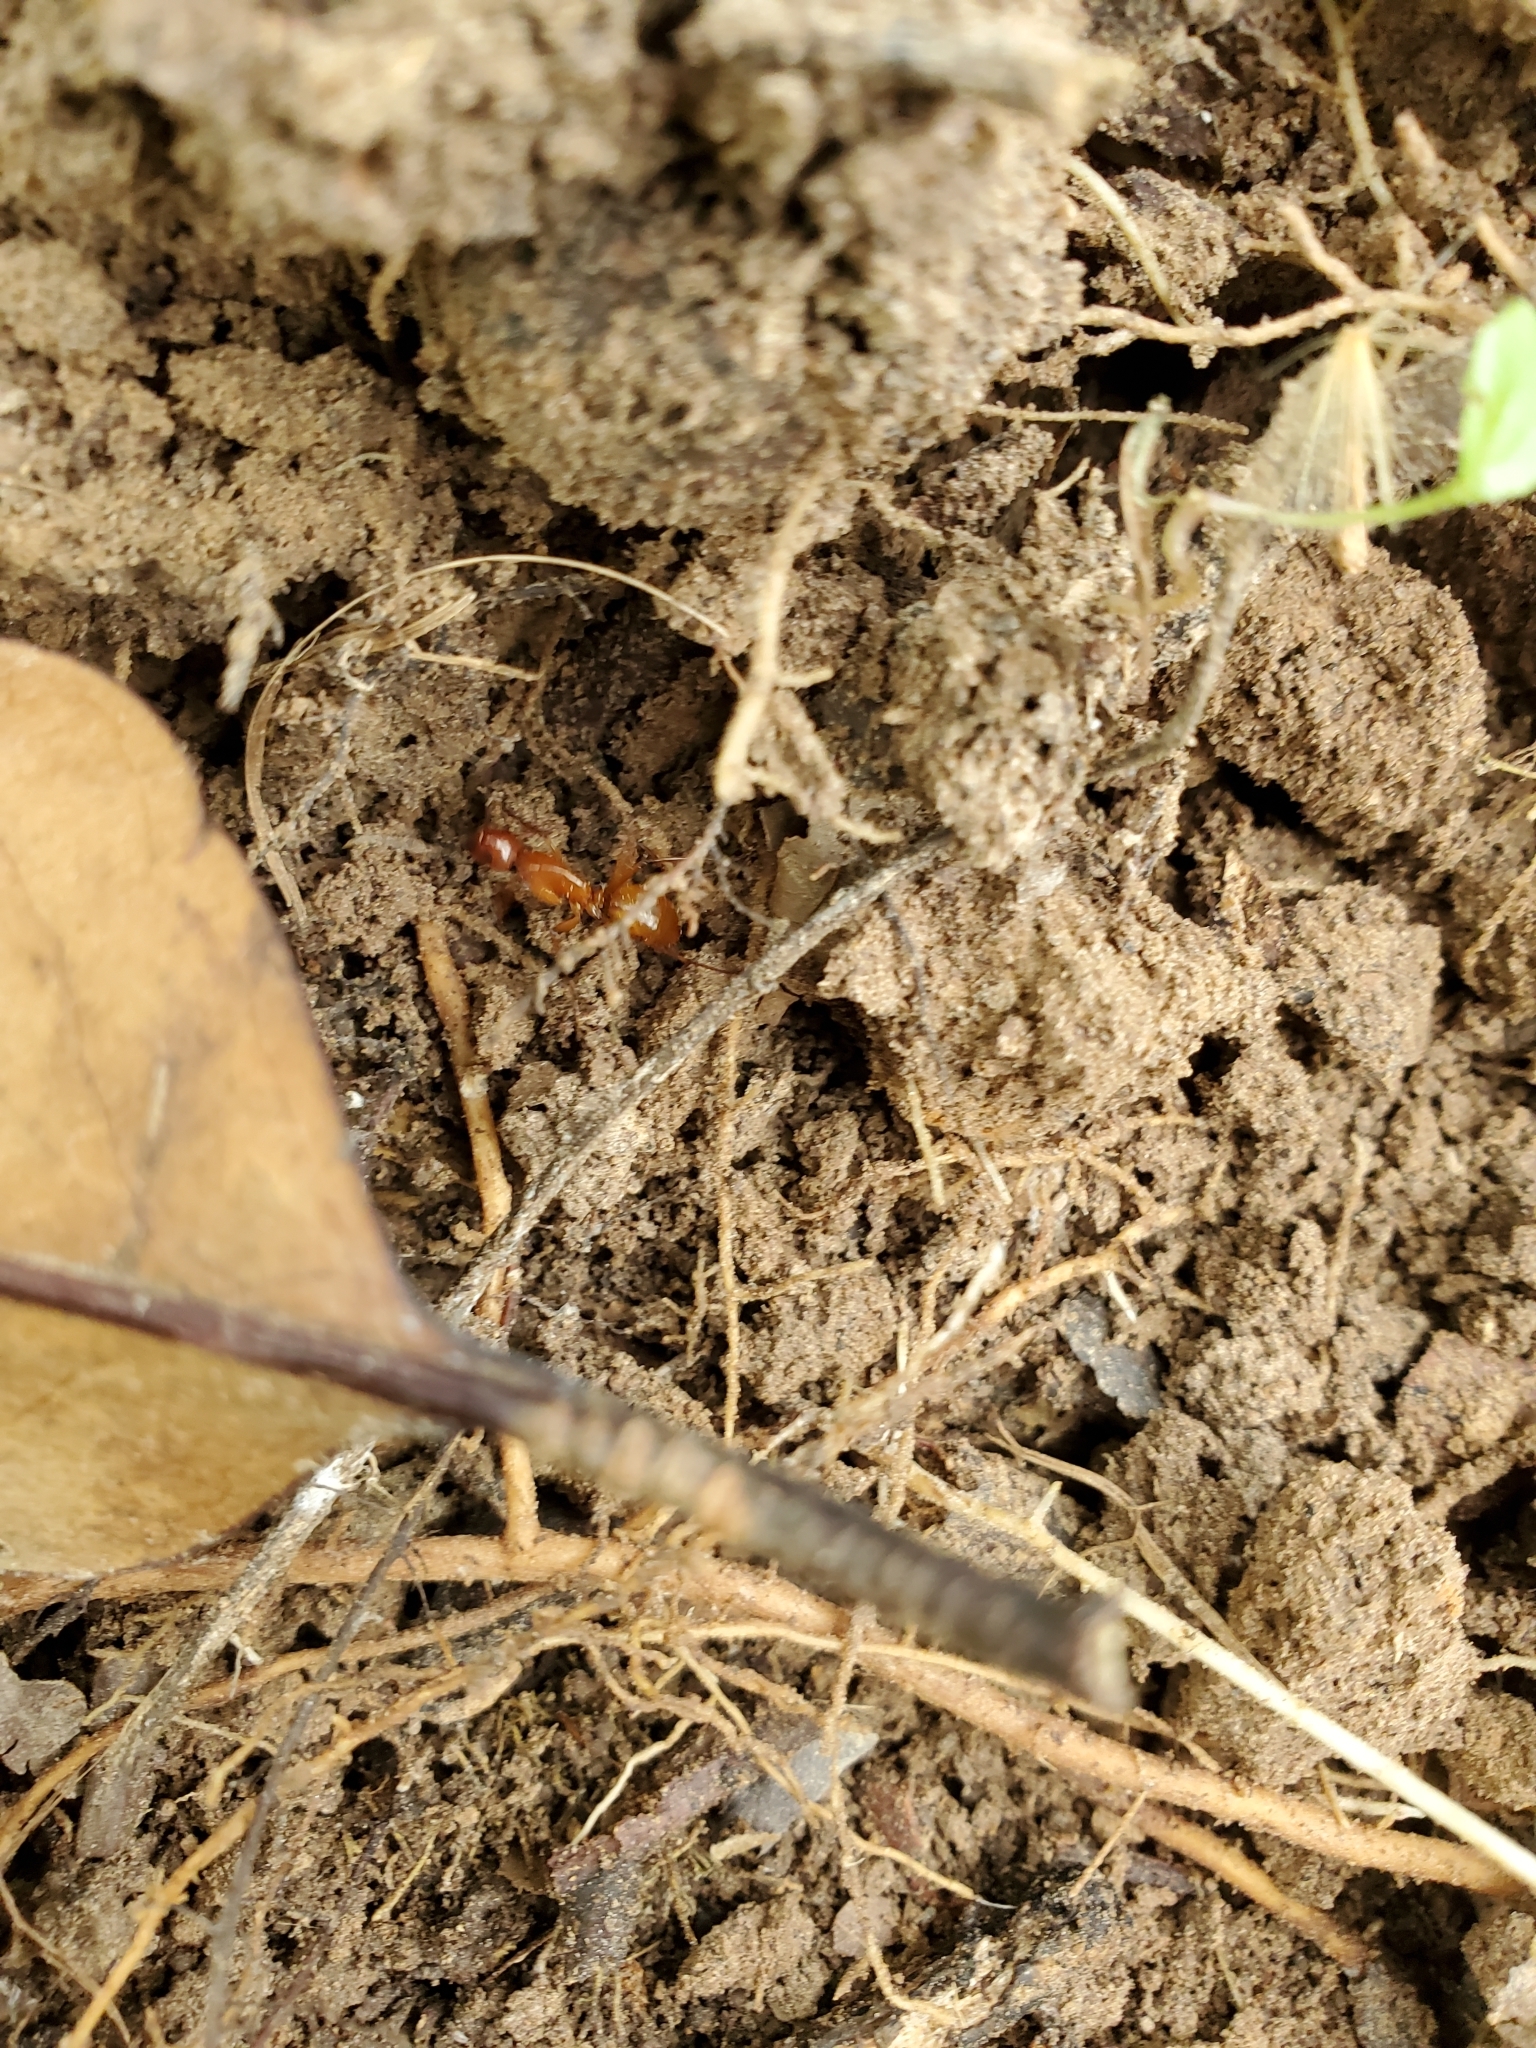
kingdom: Animalia
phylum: Arthropoda
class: Insecta
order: Hymenoptera
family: Formicidae
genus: Camponotus
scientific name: Camponotus castaneus
